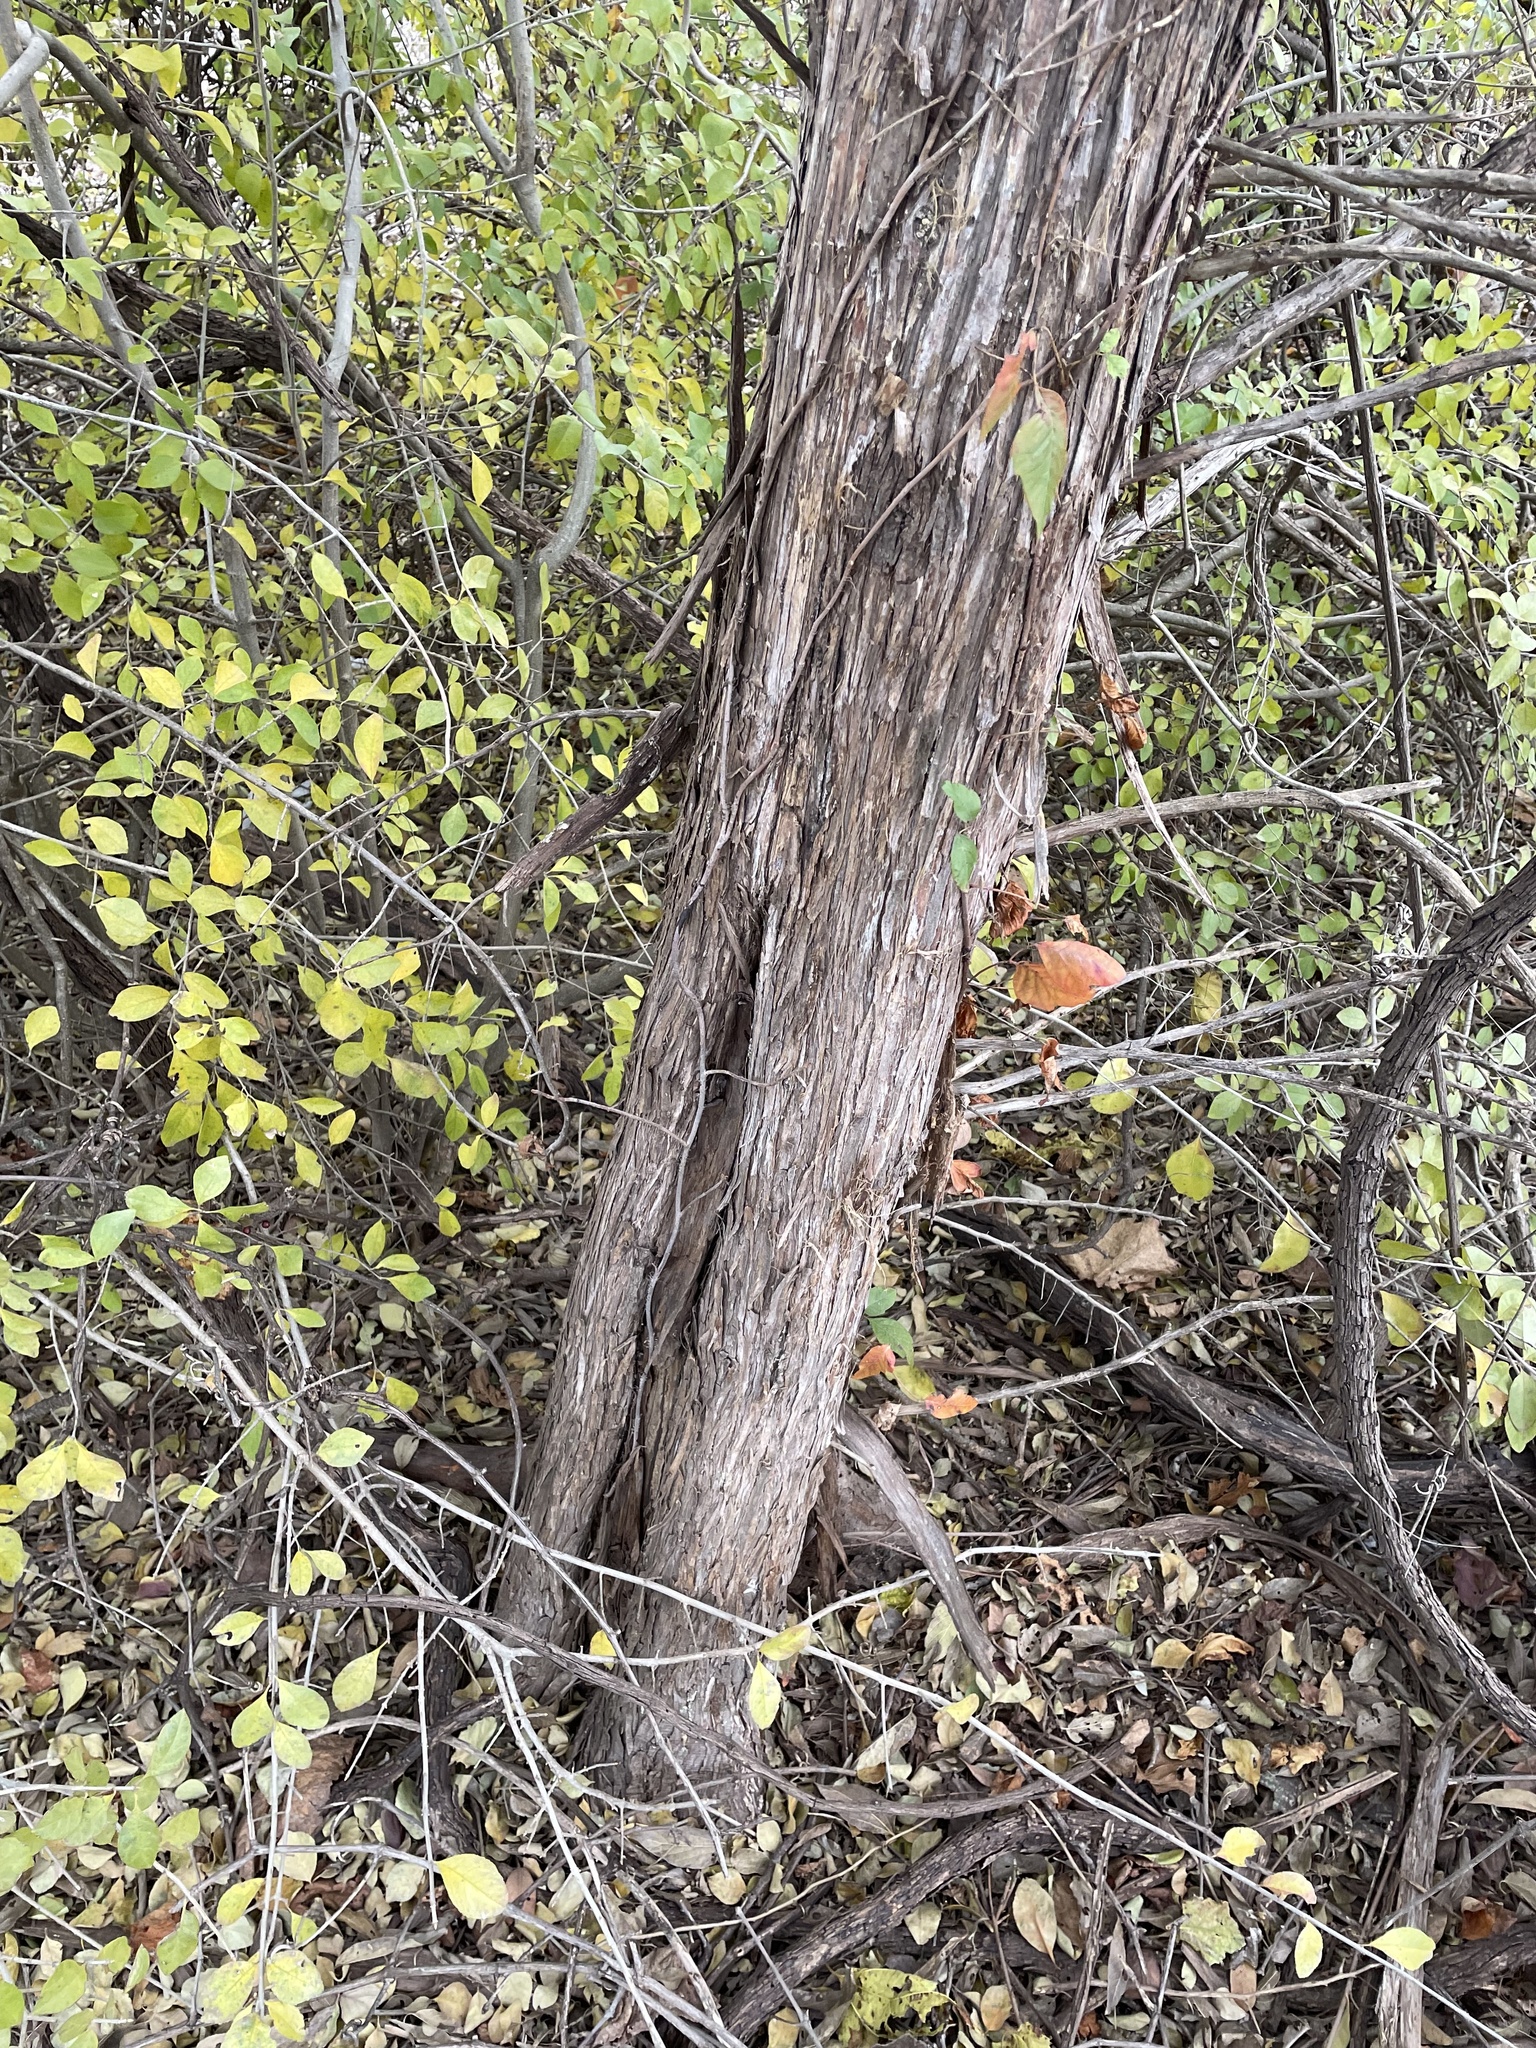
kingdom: Plantae
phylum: Tracheophyta
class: Pinopsida
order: Pinales
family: Cupressaceae
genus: Juniperus
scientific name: Juniperus virginiana
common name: Red juniper
